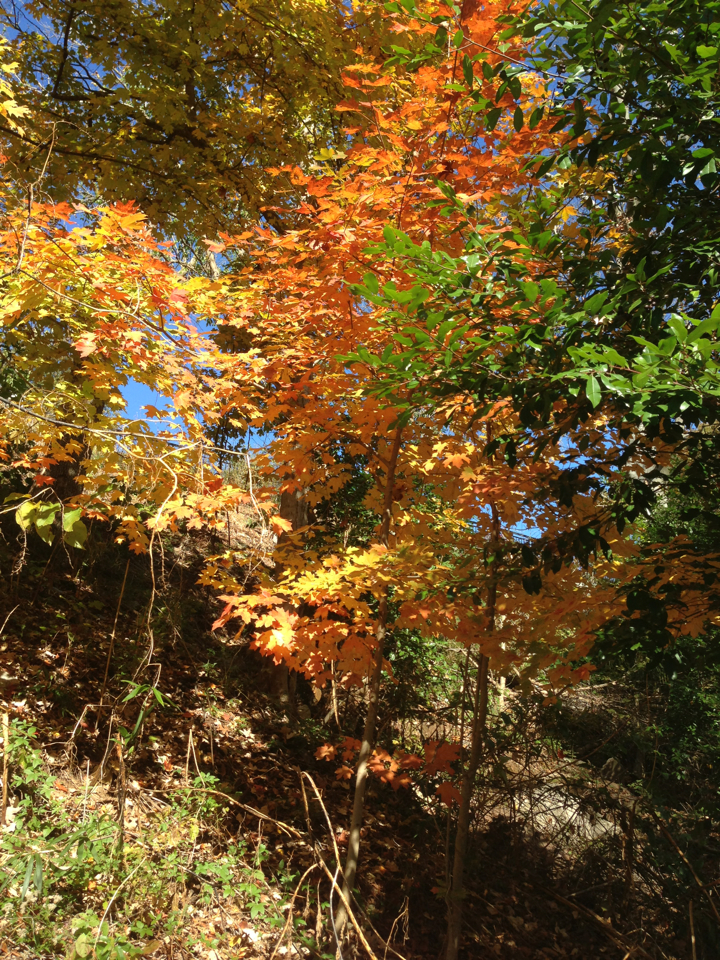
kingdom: Plantae
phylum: Tracheophyta
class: Magnoliopsida
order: Sapindales
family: Sapindaceae
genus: Acer
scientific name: Acer saccharum
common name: Sugar maple
